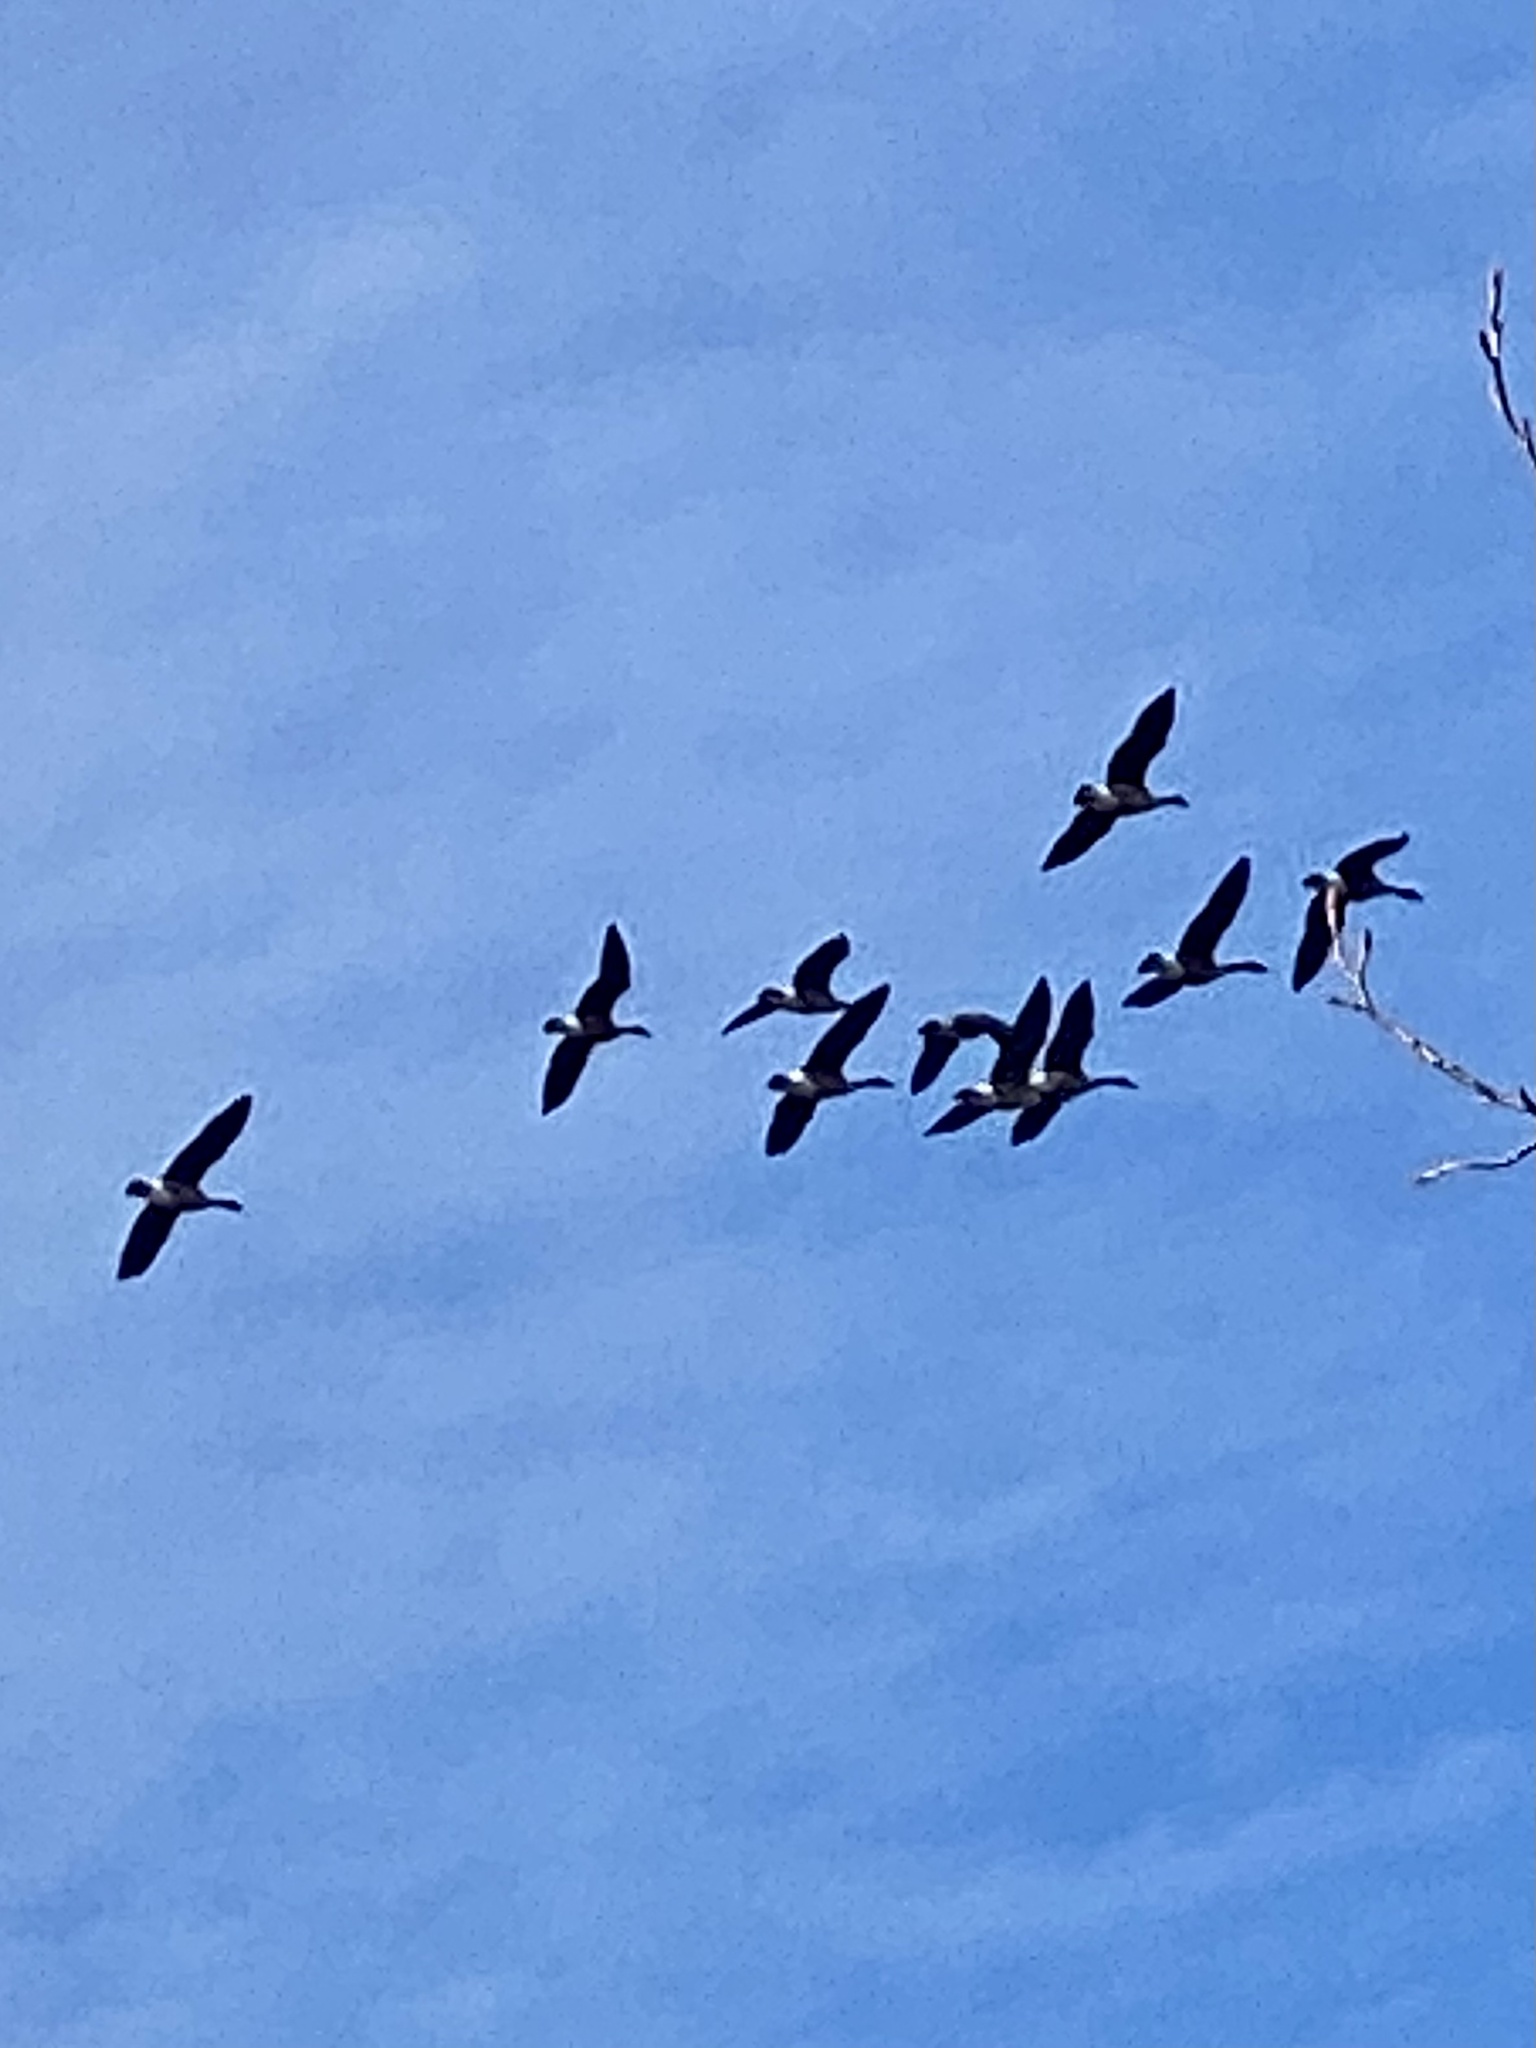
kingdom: Animalia
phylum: Chordata
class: Aves
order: Anseriformes
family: Anatidae
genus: Branta
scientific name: Branta canadensis
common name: Canada goose
